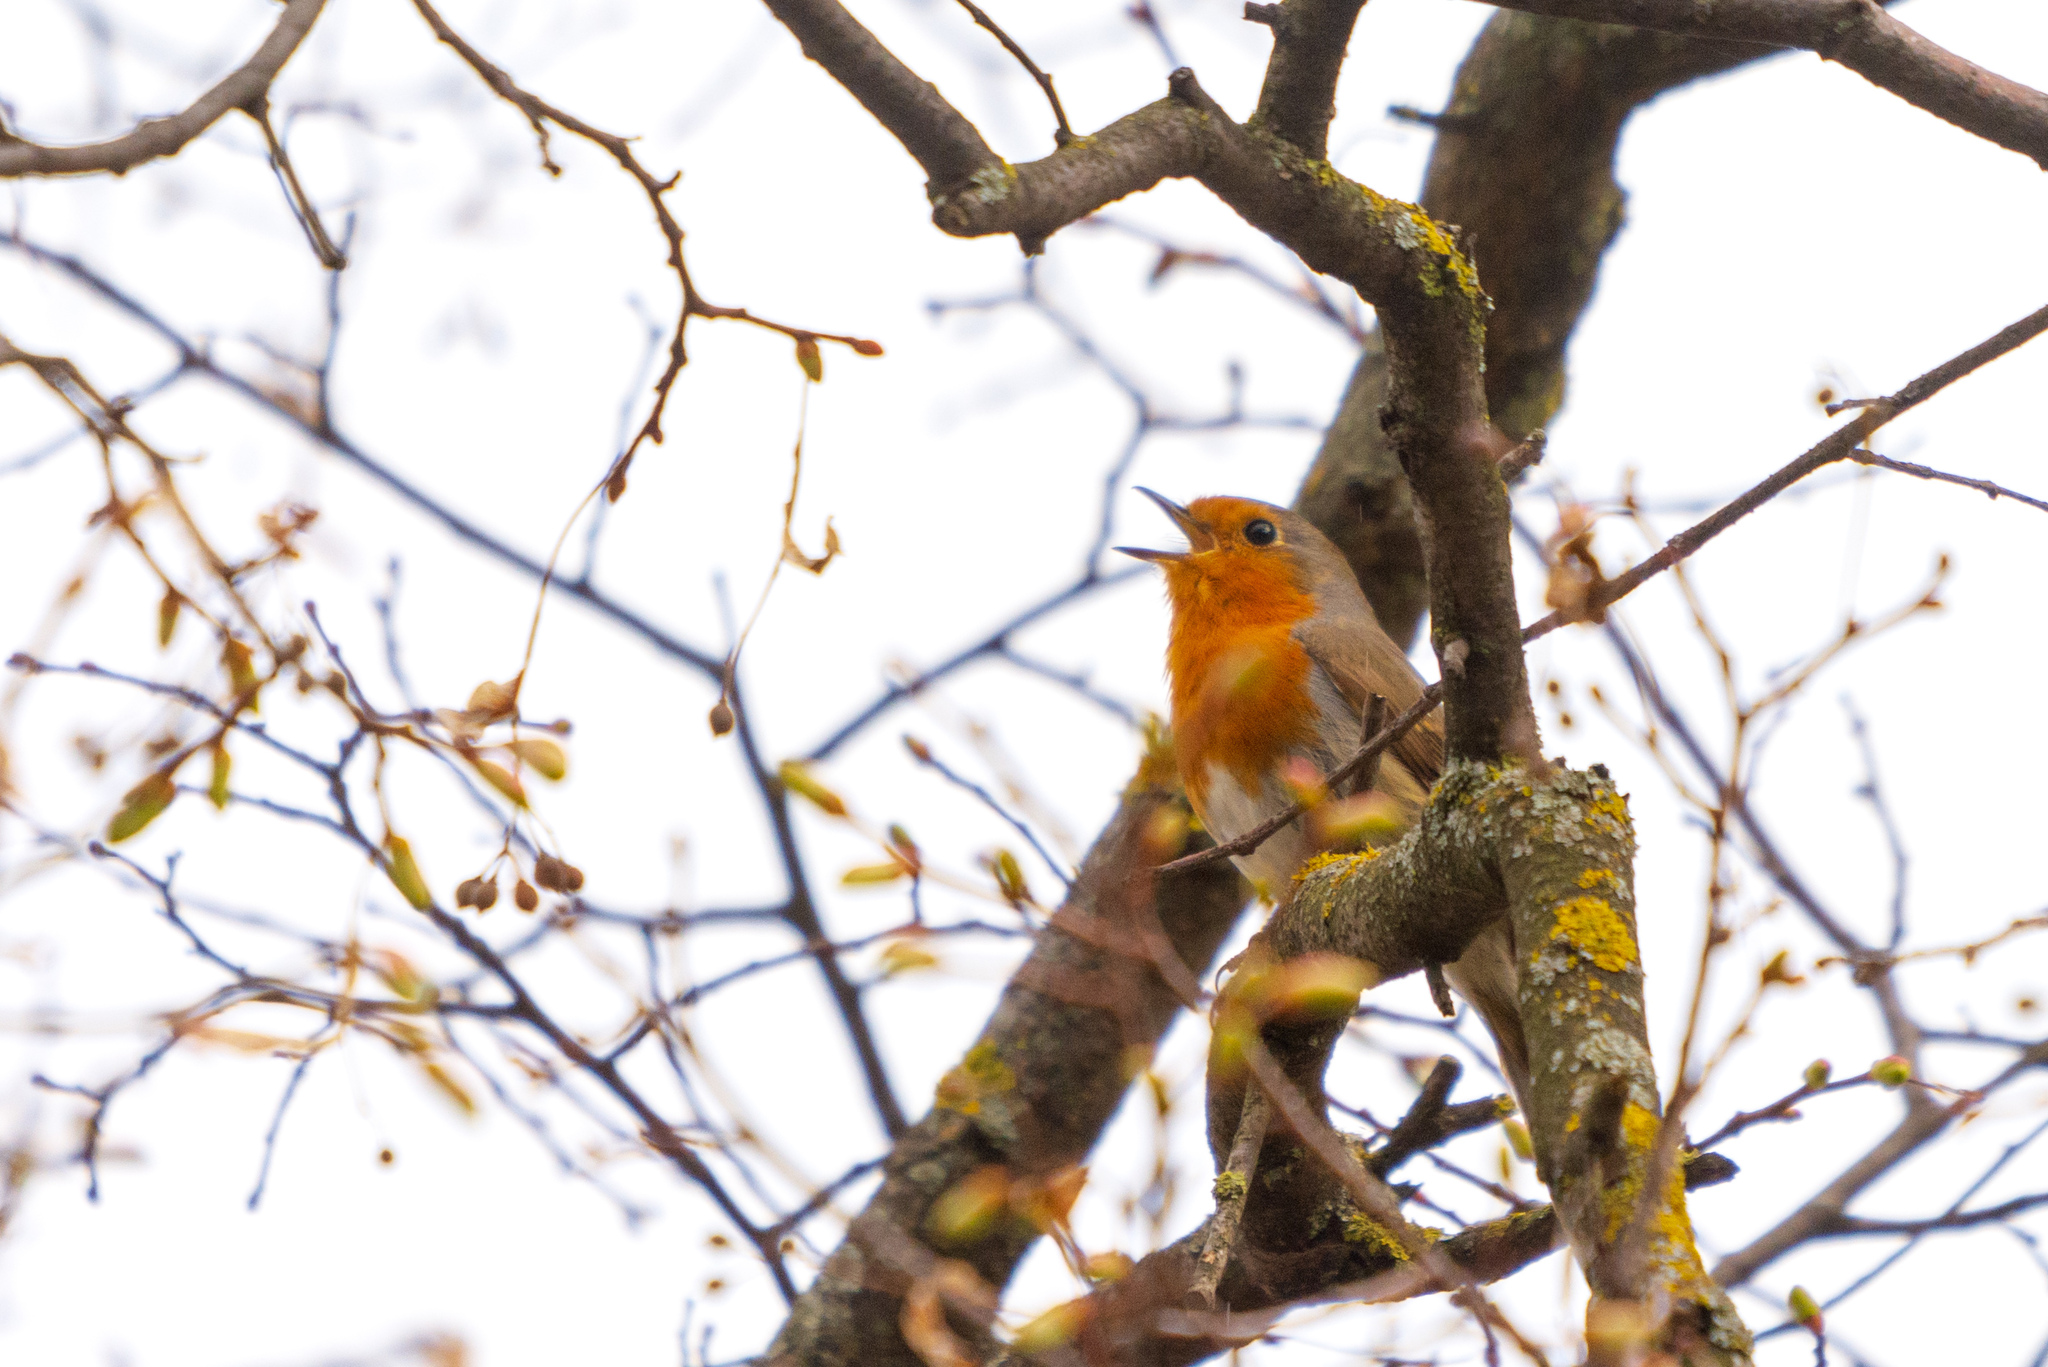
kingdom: Animalia
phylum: Chordata
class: Aves
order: Passeriformes
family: Muscicapidae
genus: Erithacus
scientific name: Erithacus rubecula
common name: European robin
